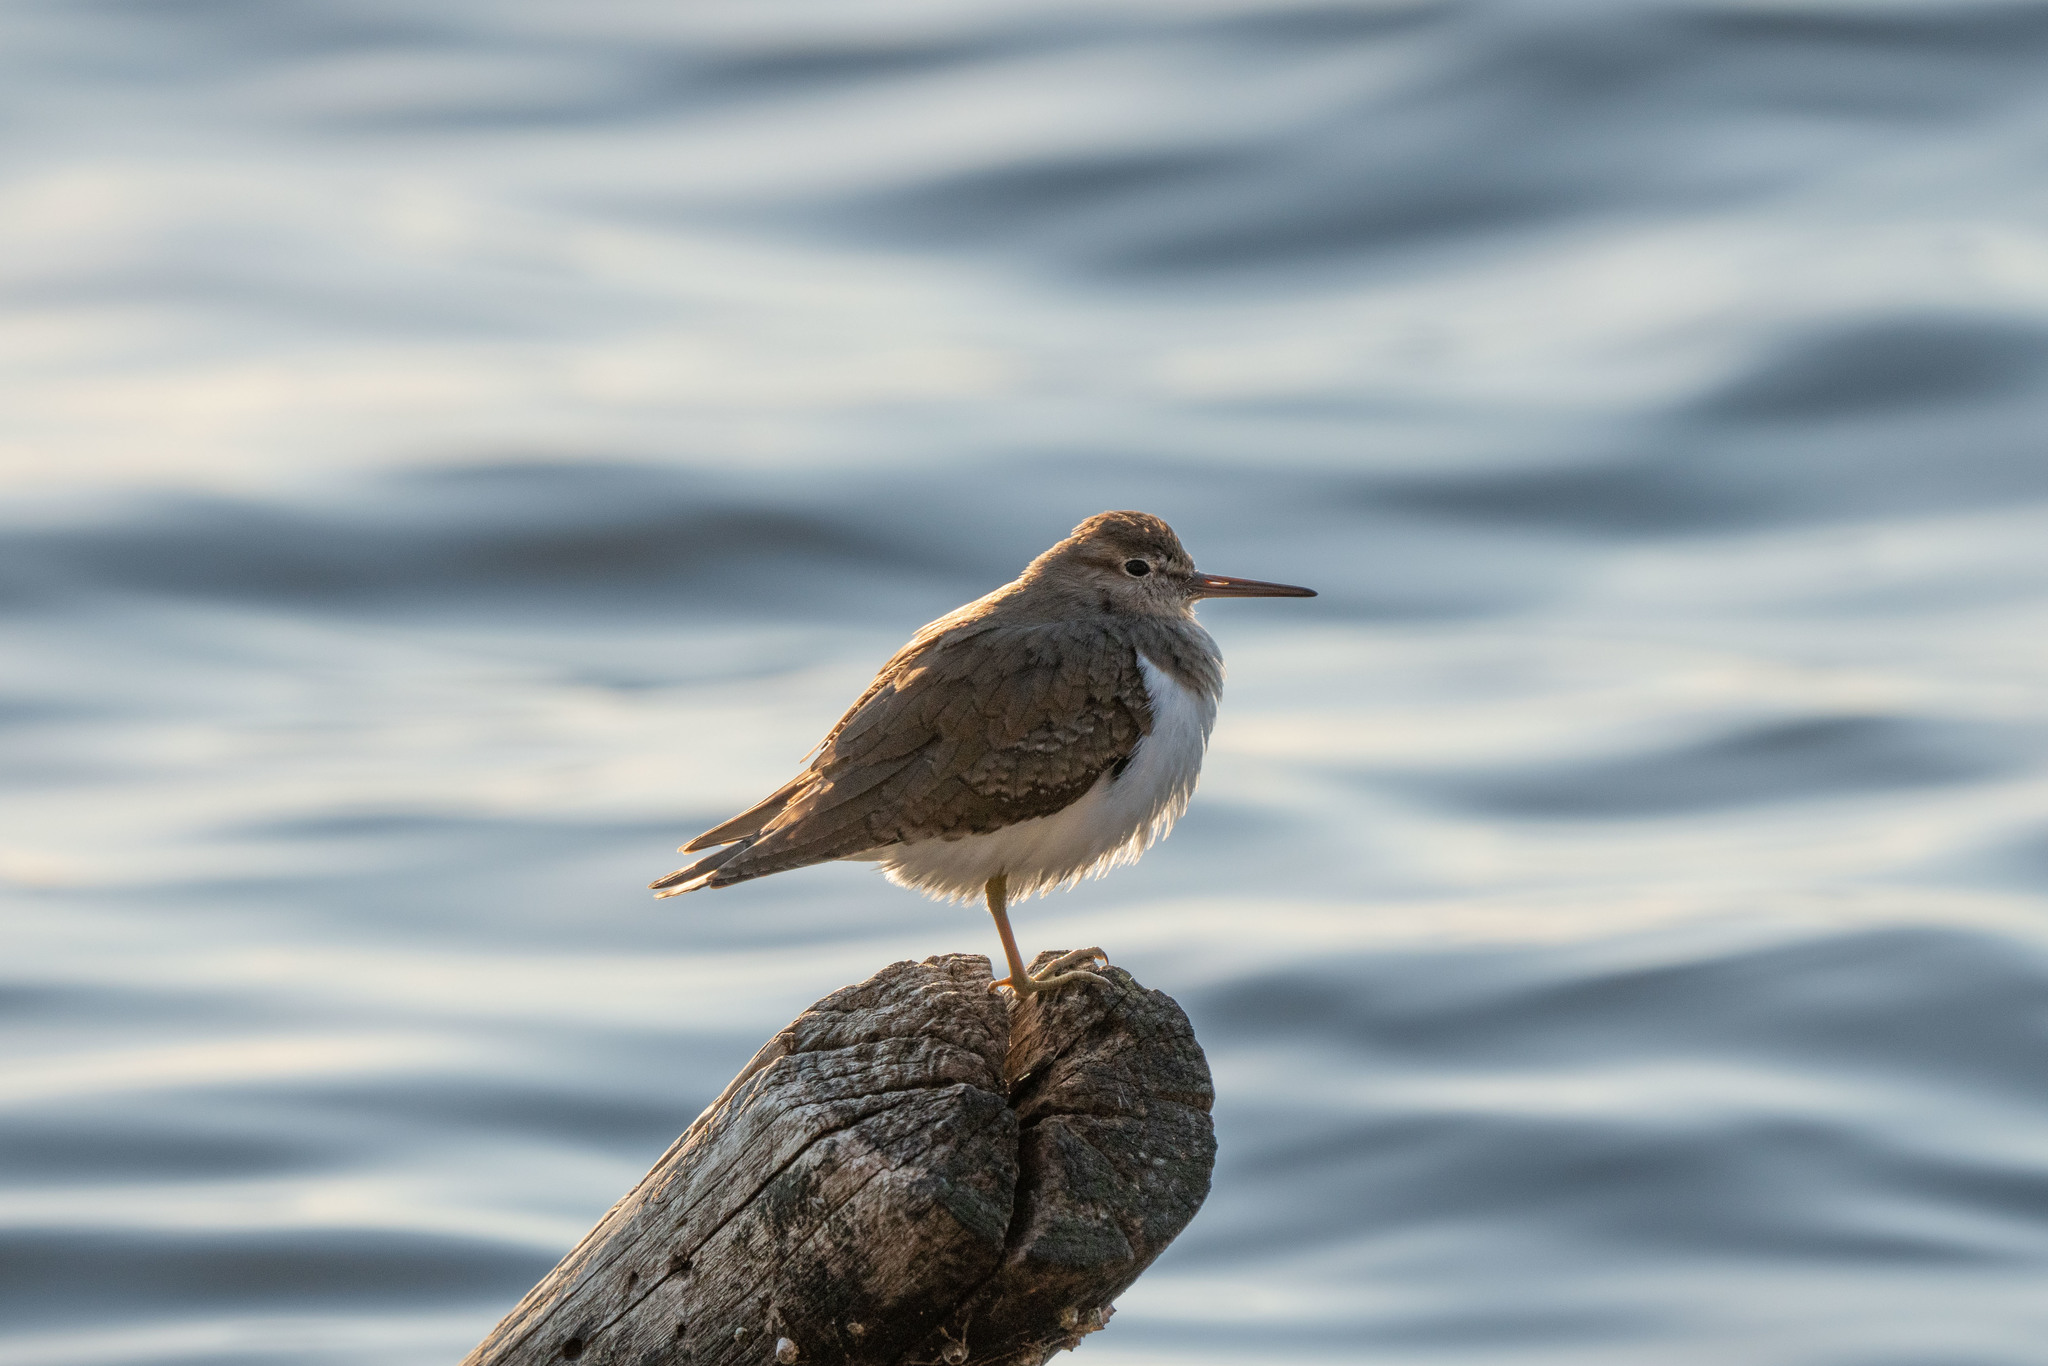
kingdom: Animalia
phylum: Chordata
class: Aves
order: Charadriiformes
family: Scolopacidae
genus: Actitis
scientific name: Actitis hypoleucos
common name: Common sandpiper
